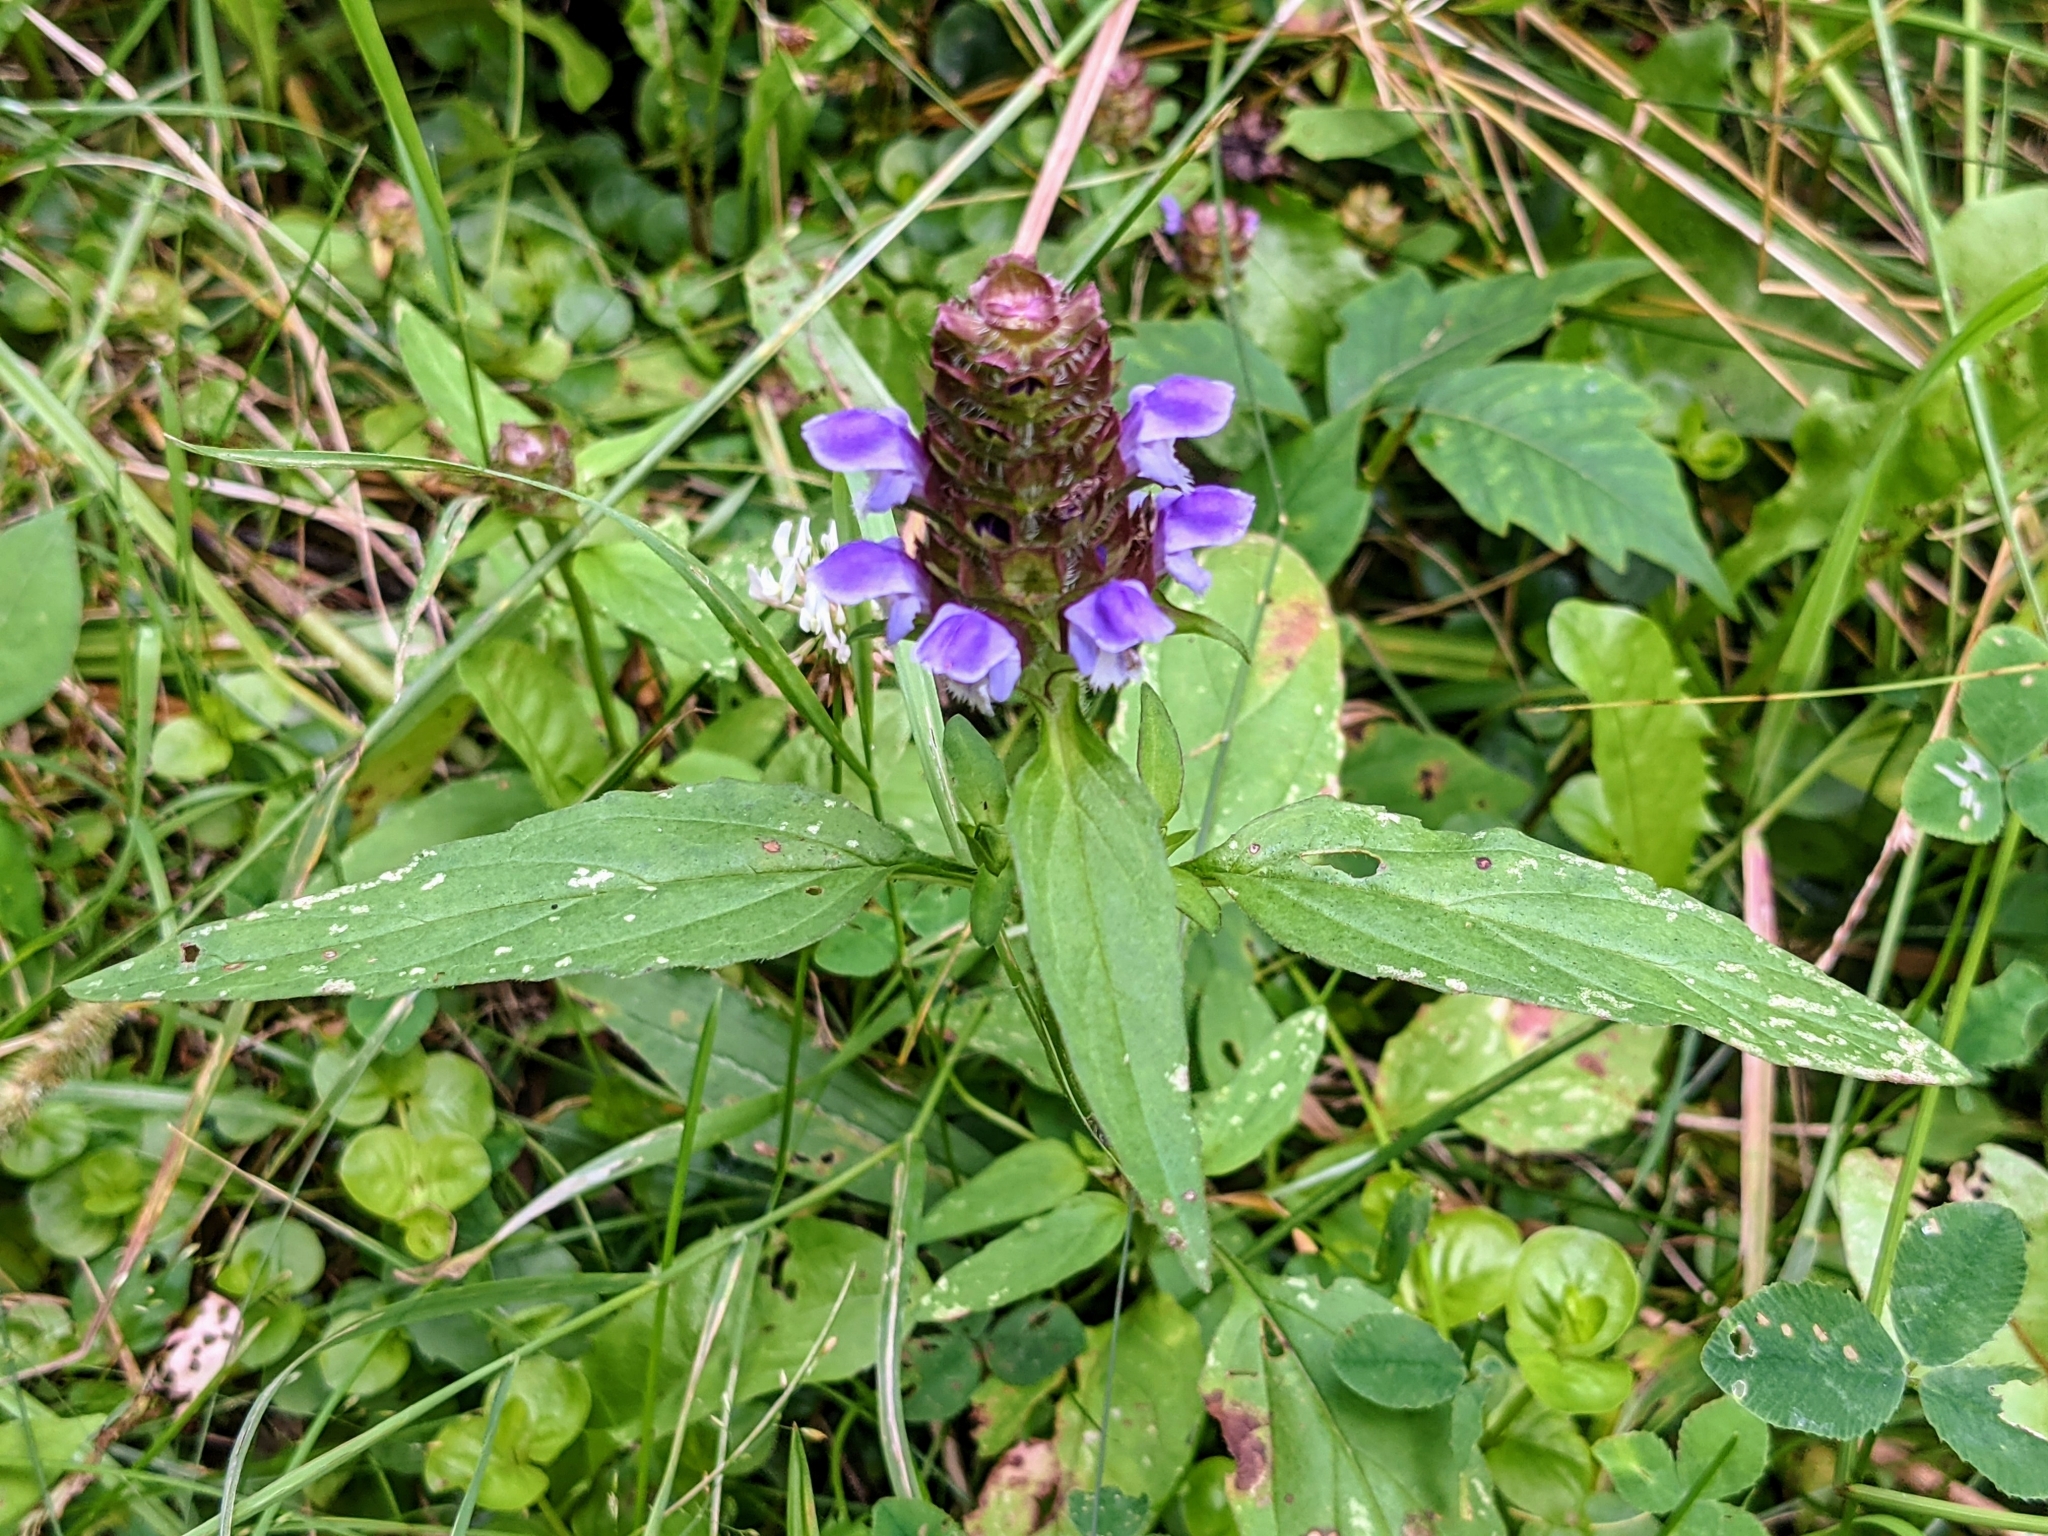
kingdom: Plantae
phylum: Tracheophyta
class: Magnoliopsida
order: Lamiales
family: Lamiaceae
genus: Prunella
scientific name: Prunella vulgaris
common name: Heal-all
